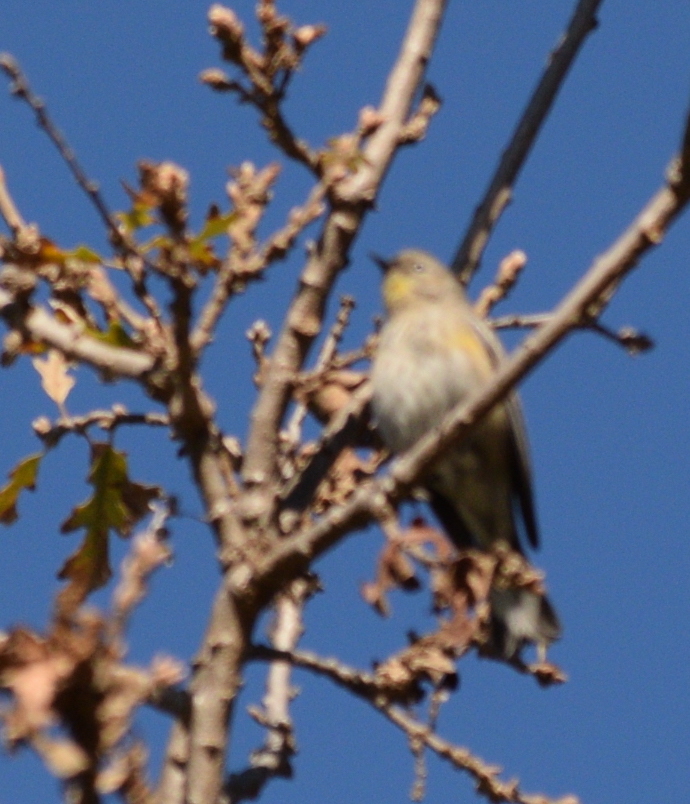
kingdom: Animalia
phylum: Chordata
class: Aves
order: Passeriformes
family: Parulidae
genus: Setophaga
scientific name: Setophaga auduboni
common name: Audubon's warbler
